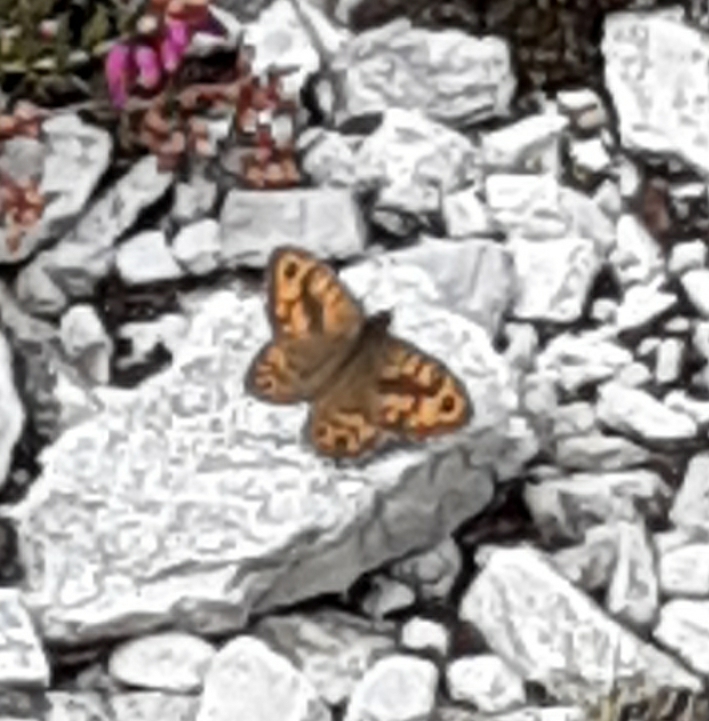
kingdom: Animalia
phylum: Arthropoda
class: Insecta
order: Lepidoptera
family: Nymphalidae
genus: Pararge
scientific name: Pararge Lasiommata megera
